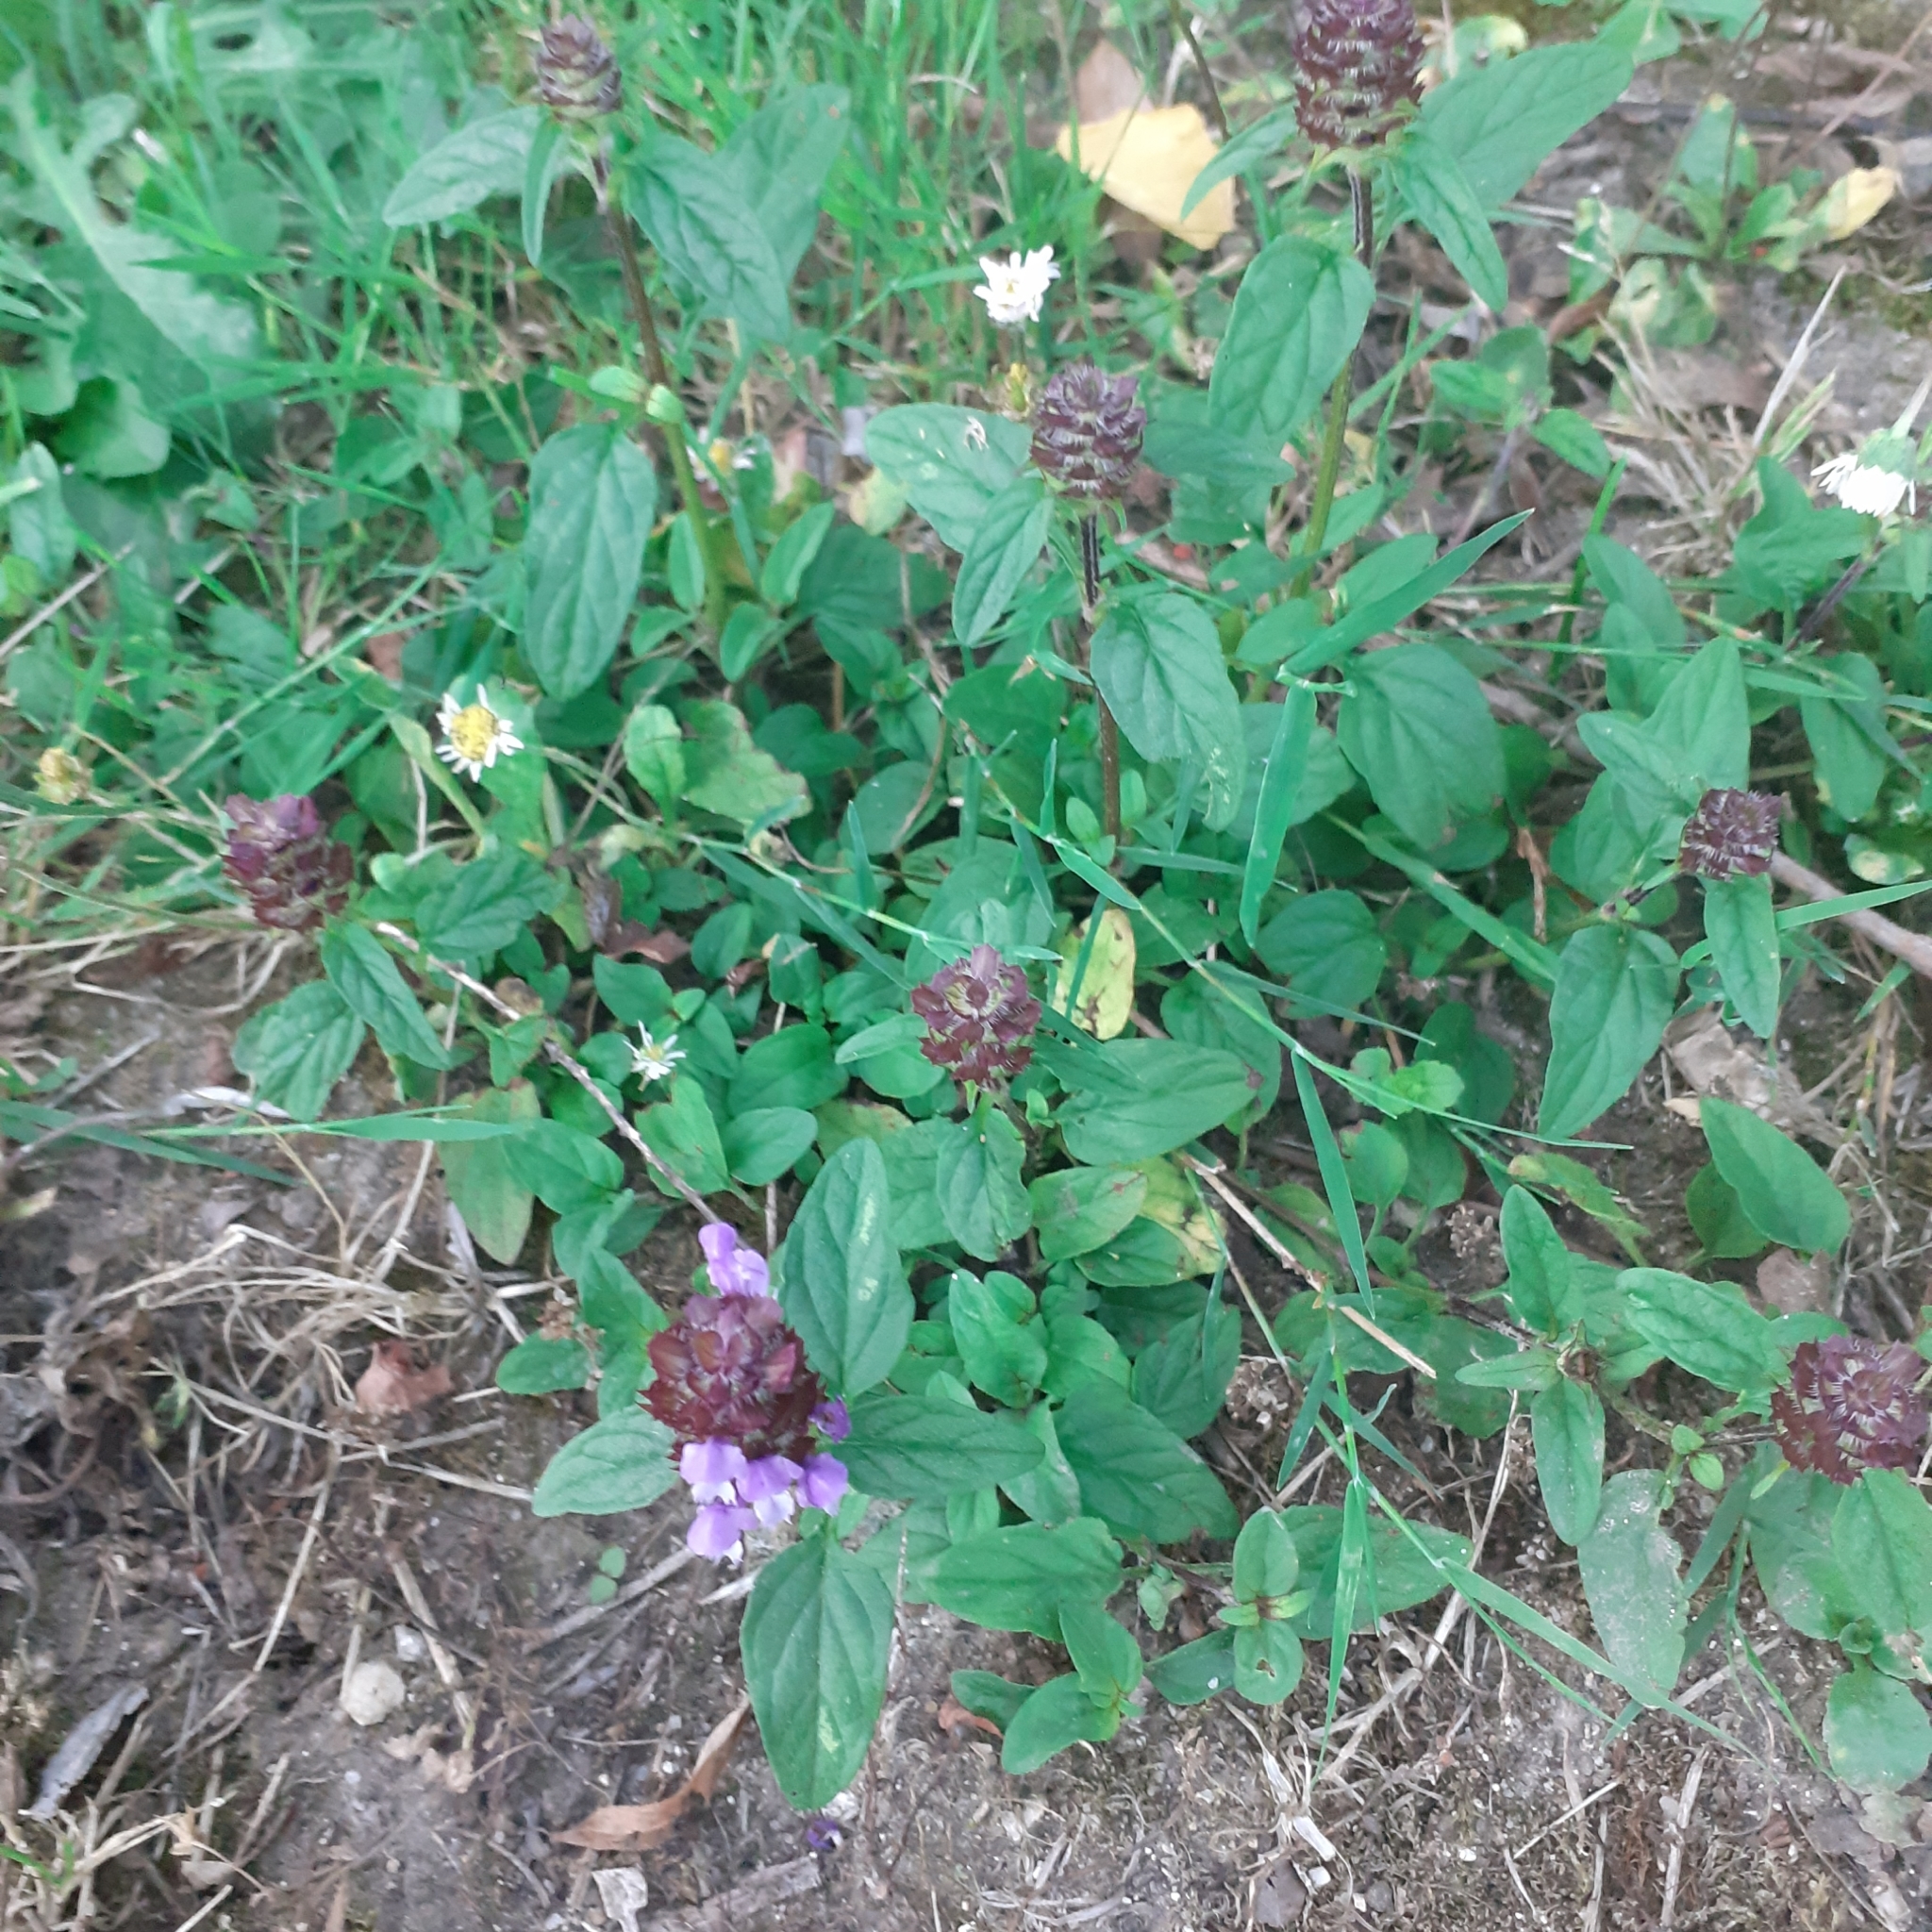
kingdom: Plantae
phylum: Tracheophyta
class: Magnoliopsida
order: Lamiales
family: Lamiaceae
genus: Prunella
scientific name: Prunella vulgaris
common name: Heal-all
